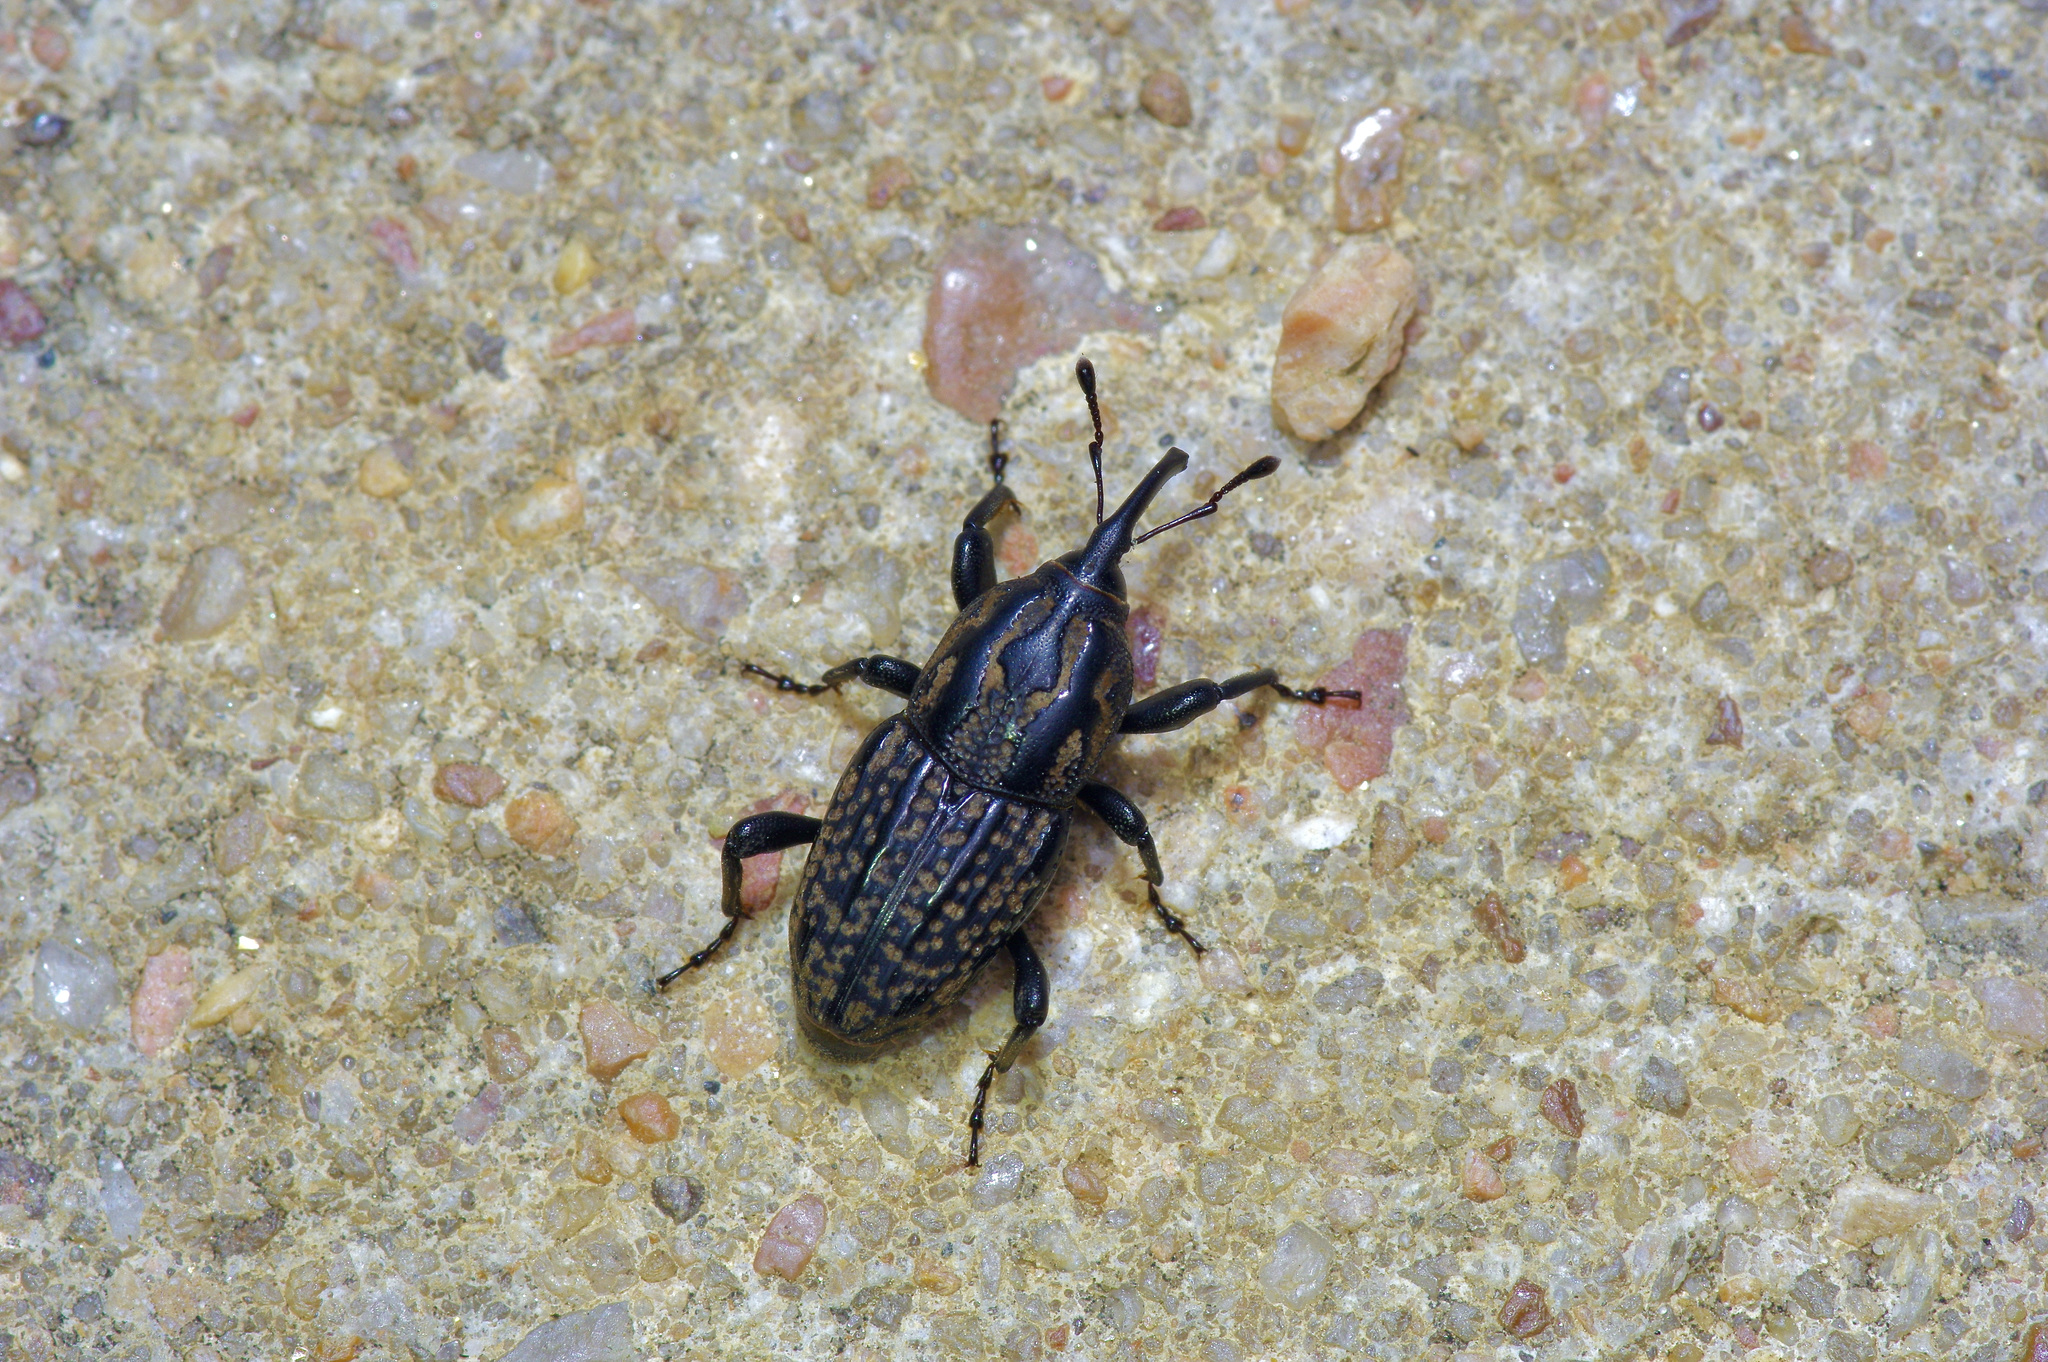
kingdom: Animalia
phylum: Arthropoda
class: Insecta
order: Coleoptera
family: Dryophthoridae
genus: Sphenophorus
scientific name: Sphenophorus cariosus
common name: Weevil
